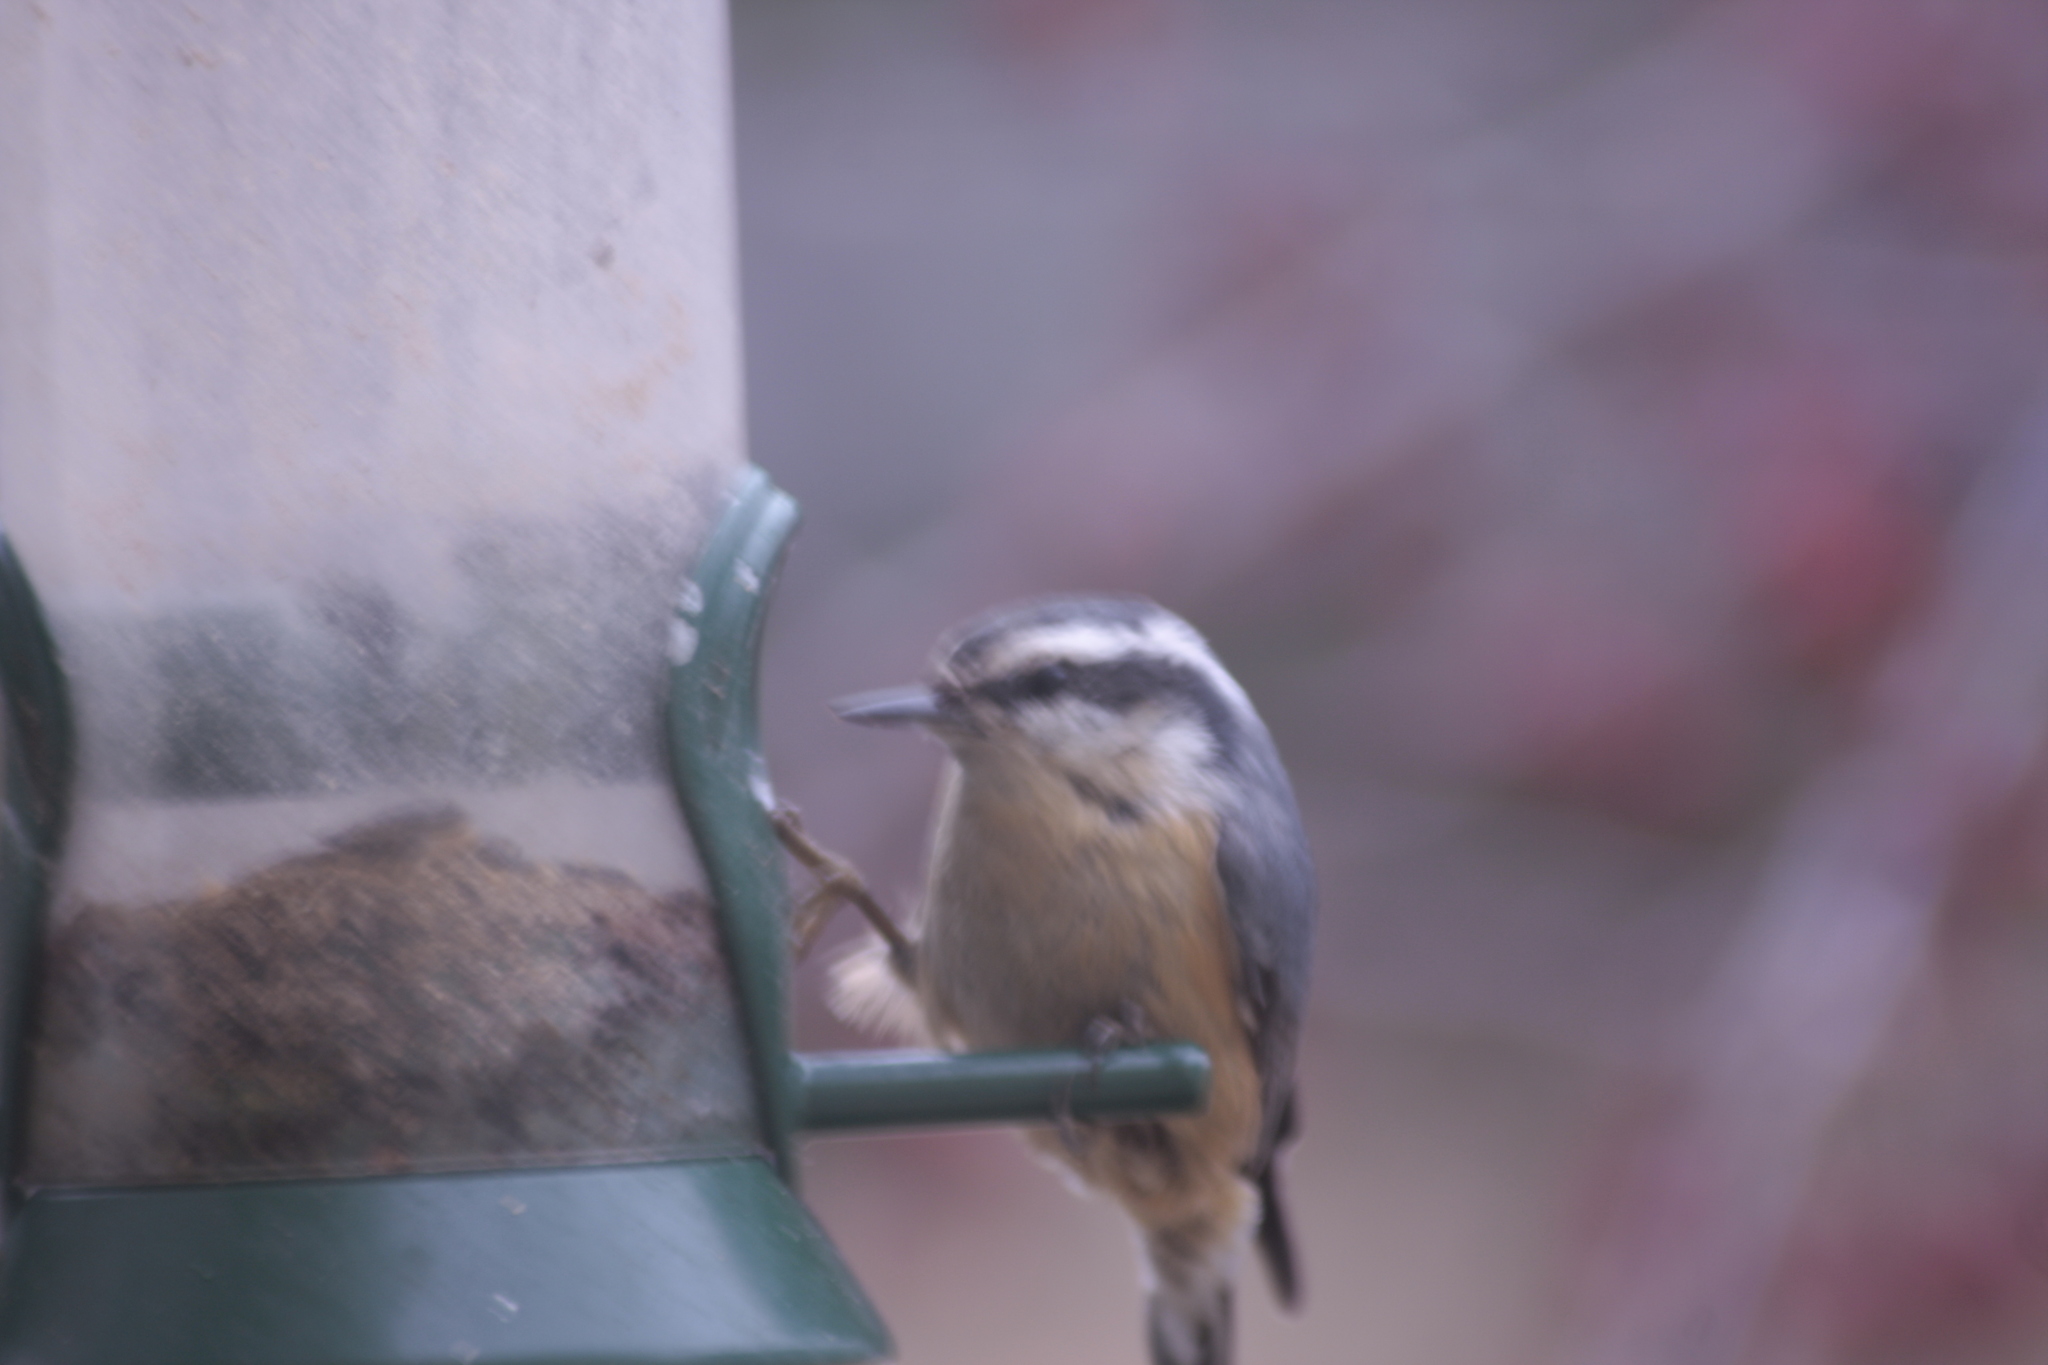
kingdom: Animalia
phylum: Chordata
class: Aves
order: Passeriformes
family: Sittidae
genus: Sitta
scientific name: Sitta canadensis
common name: Red-breasted nuthatch
